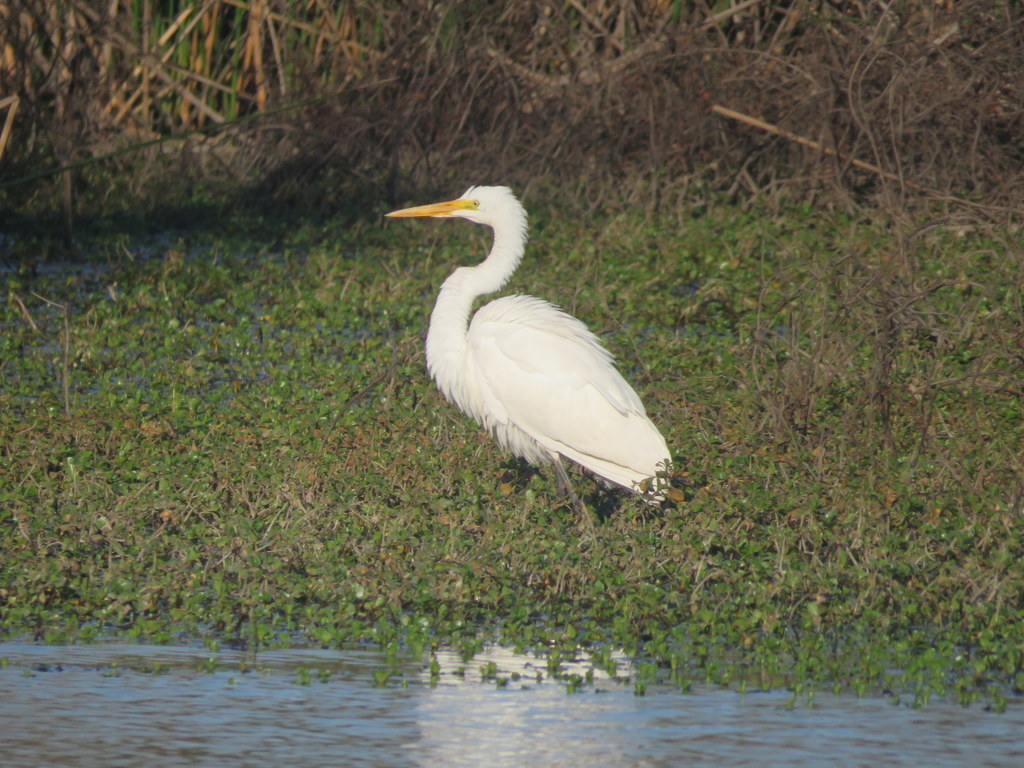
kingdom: Animalia
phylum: Chordata
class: Aves
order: Pelecaniformes
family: Ardeidae
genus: Ardea
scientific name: Ardea alba
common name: Great egret
